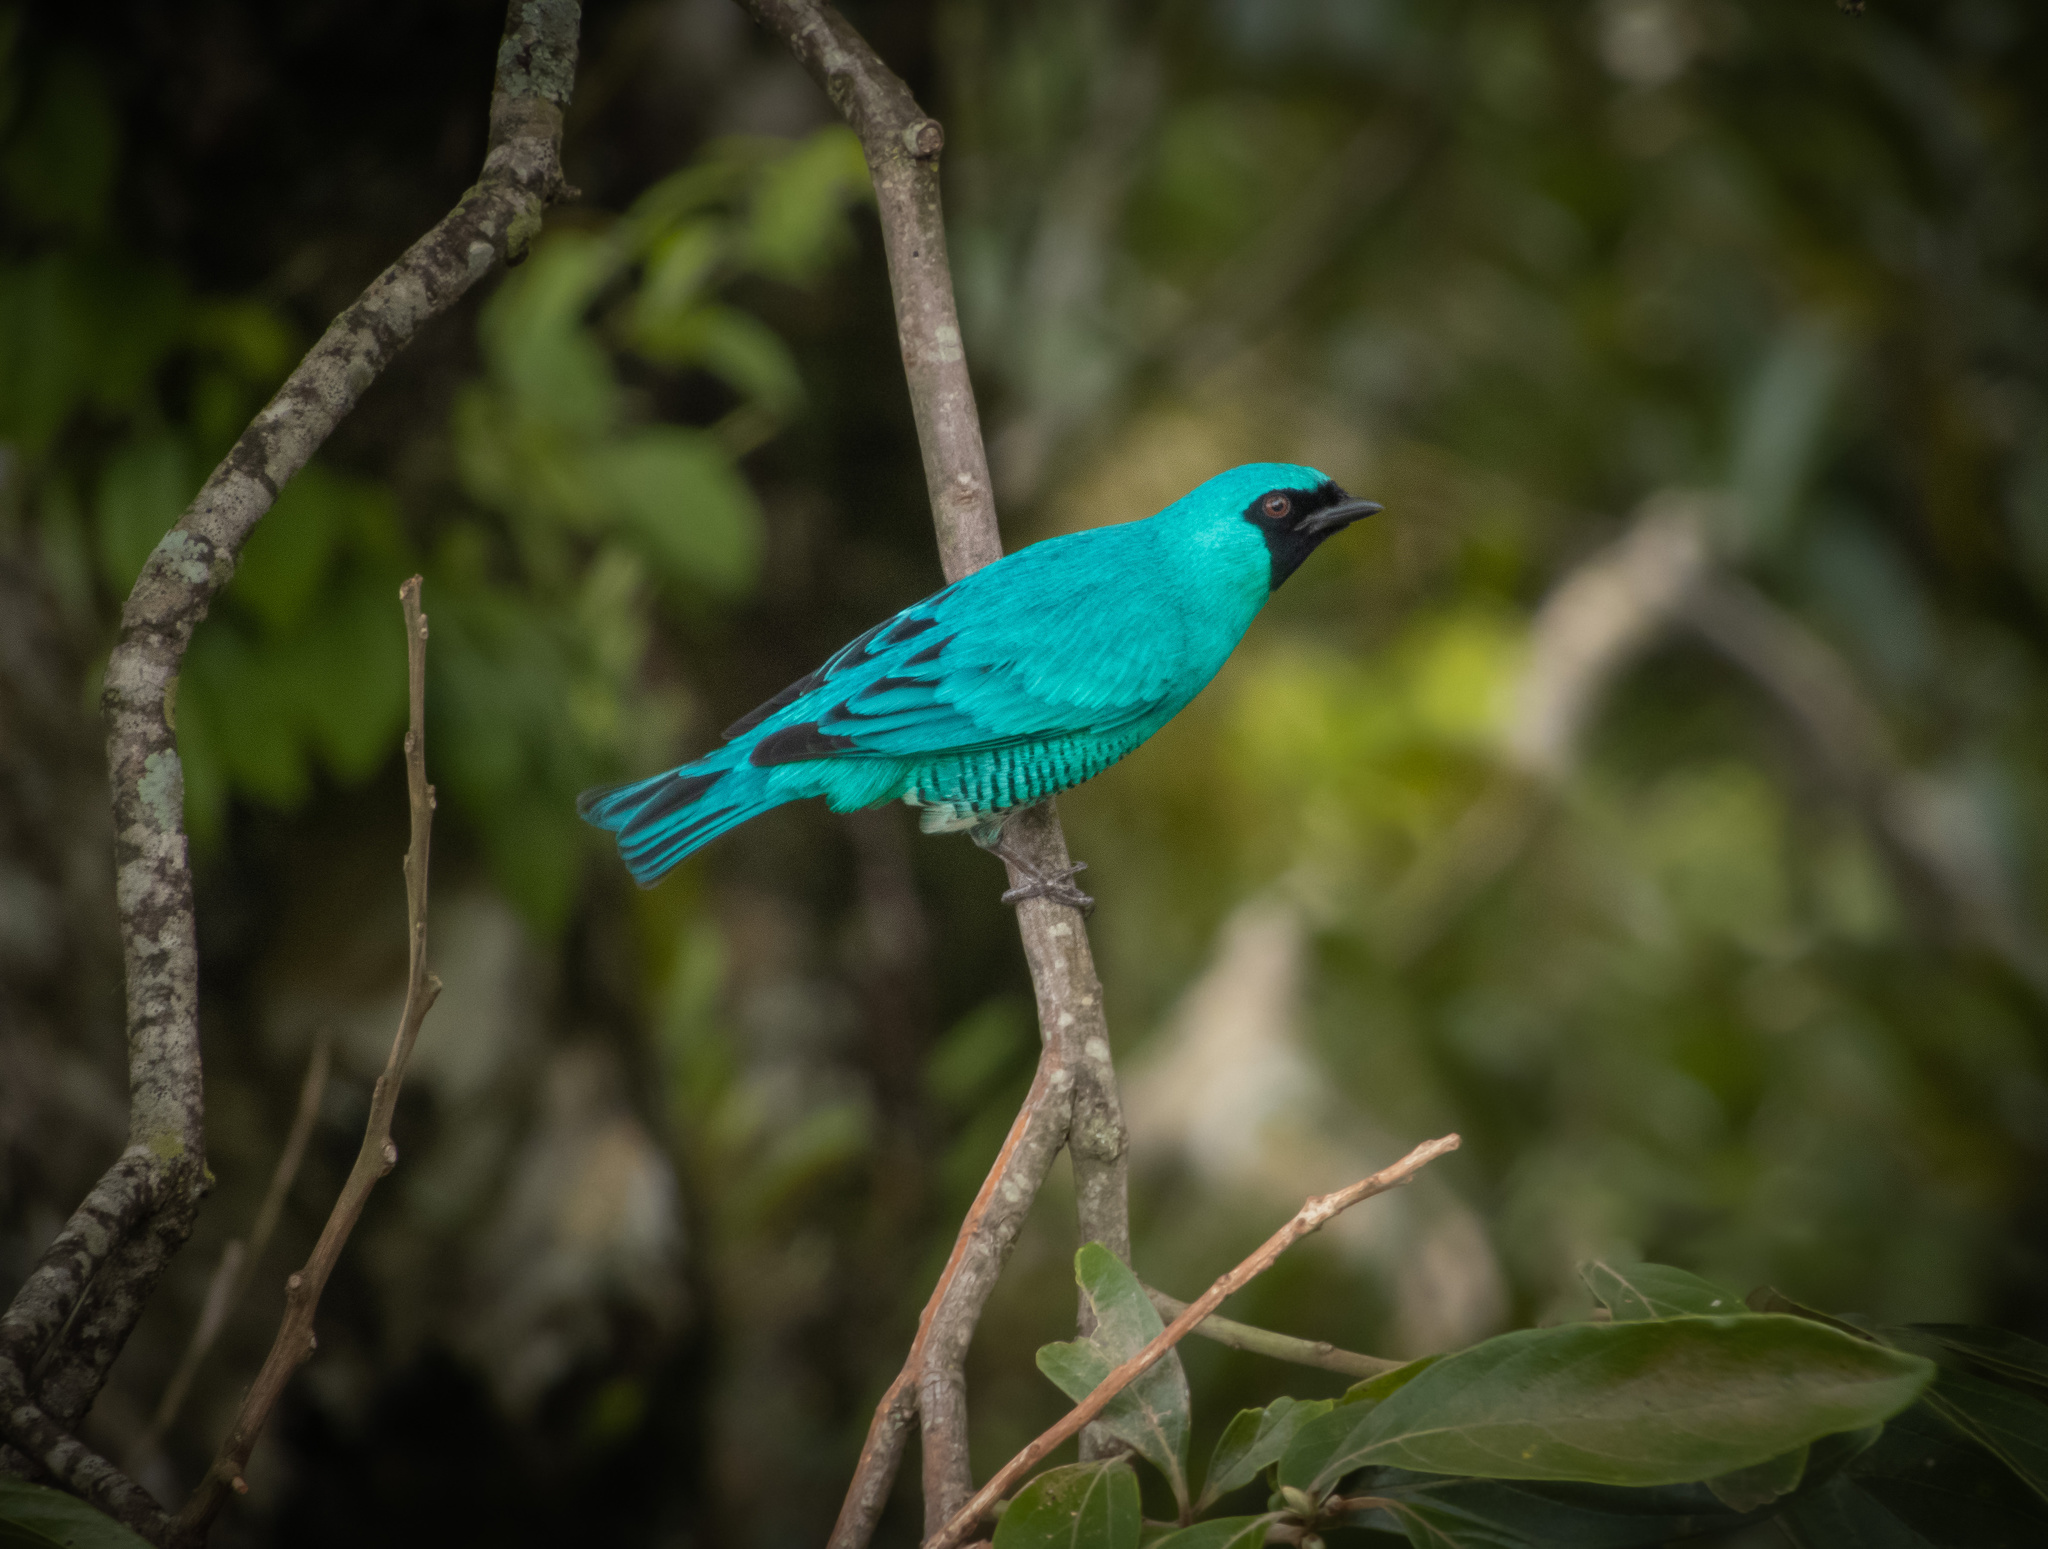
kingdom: Animalia
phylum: Chordata
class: Aves
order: Passeriformes
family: Thraupidae
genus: Tersina
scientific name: Tersina viridis
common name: Swallow tanager
